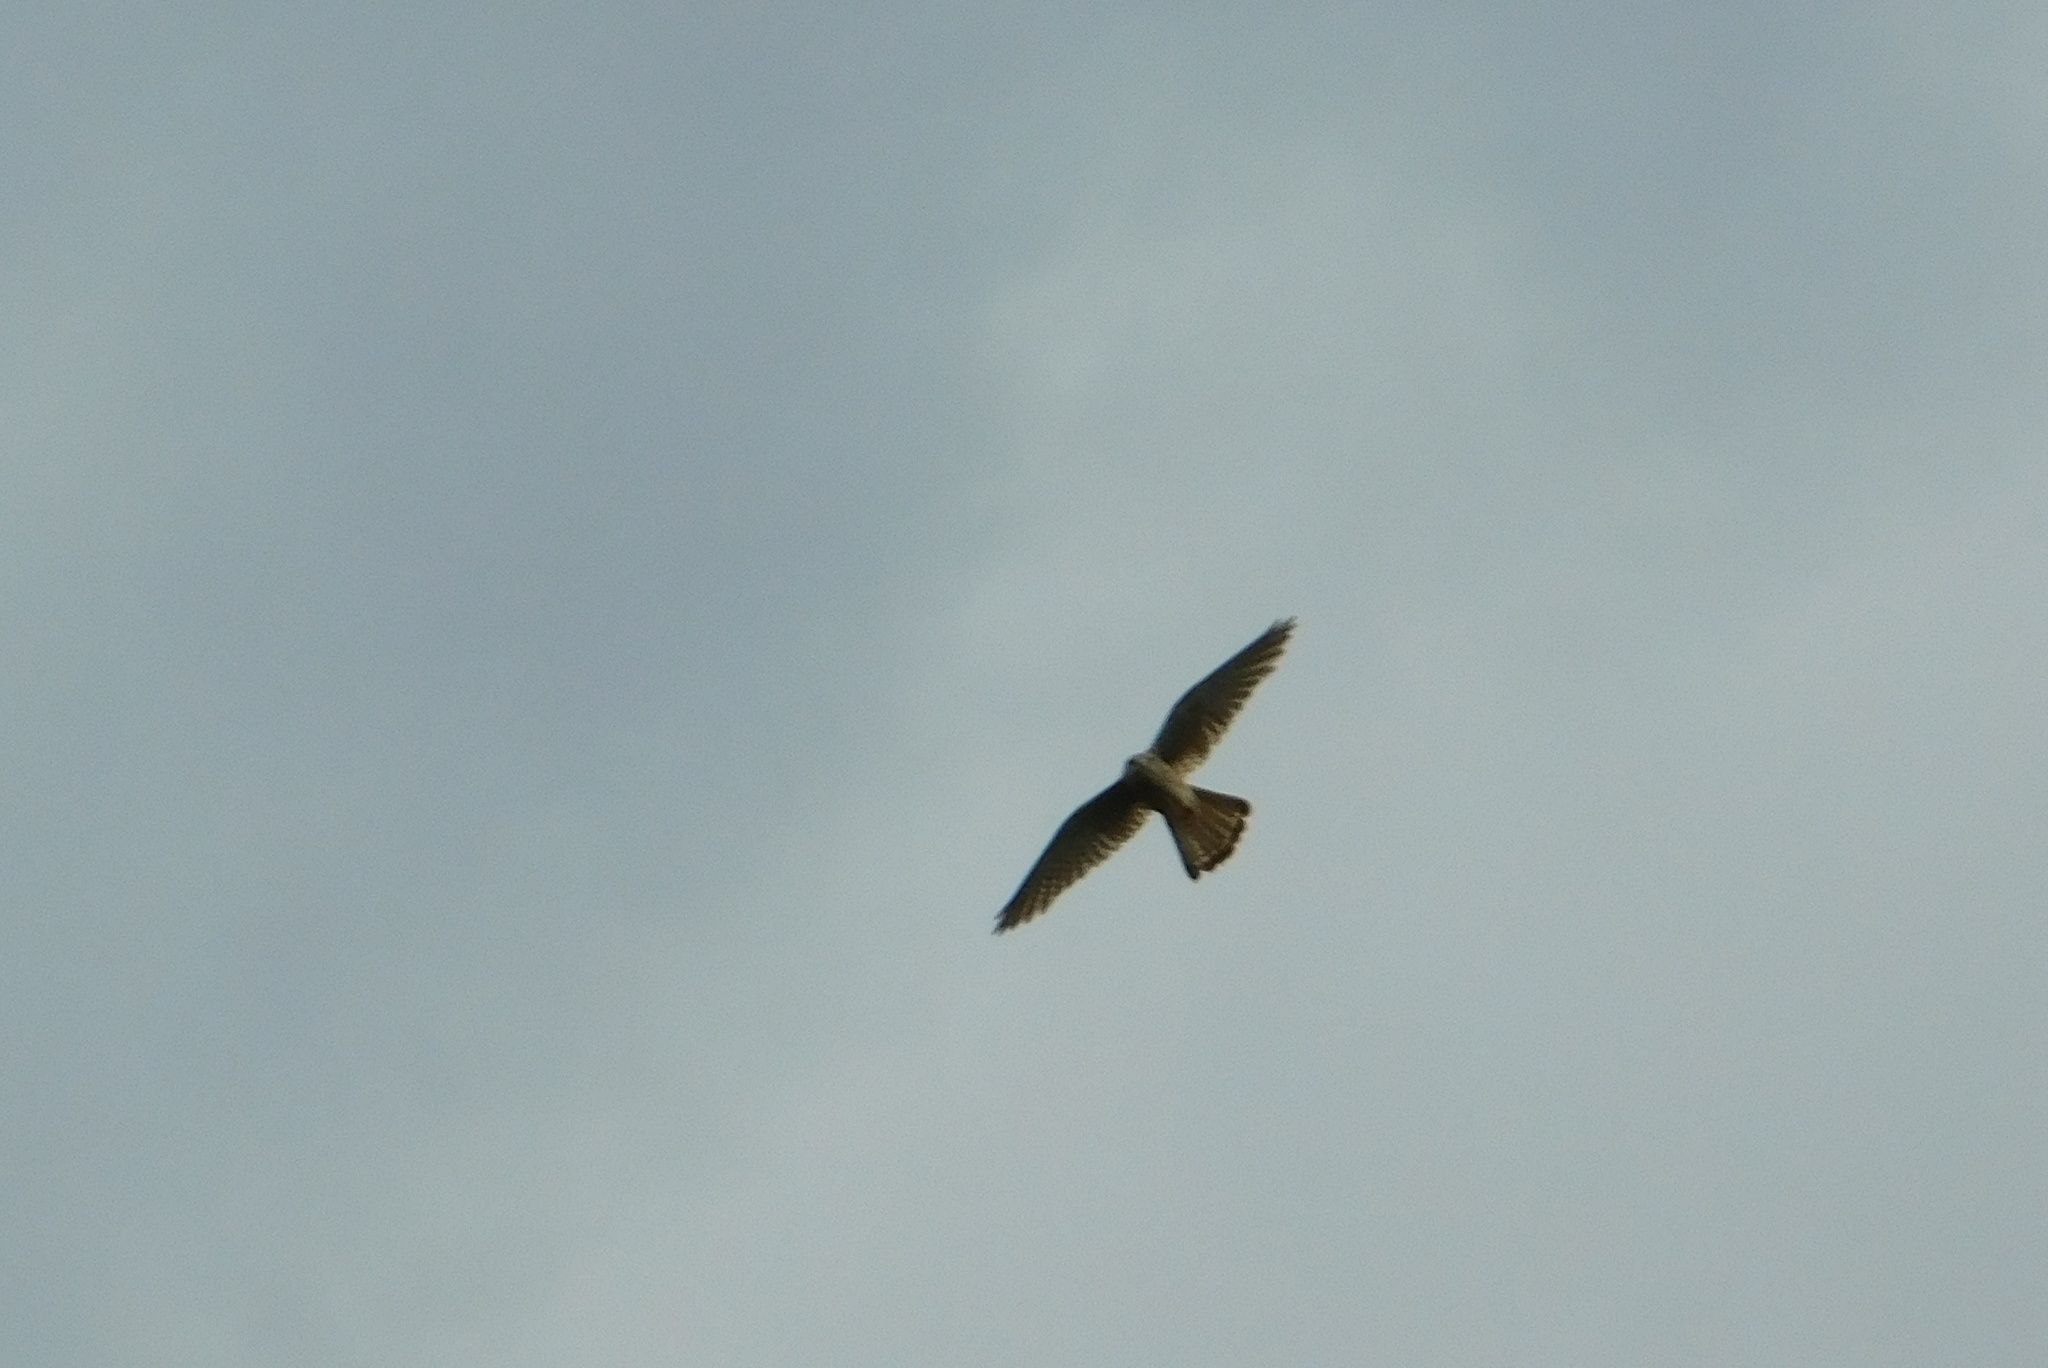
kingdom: Animalia
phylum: Chordata
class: Aves
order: Falconiformes
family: Falconidae
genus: Falco
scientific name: Falco tinnunculus
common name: Common kestrel
